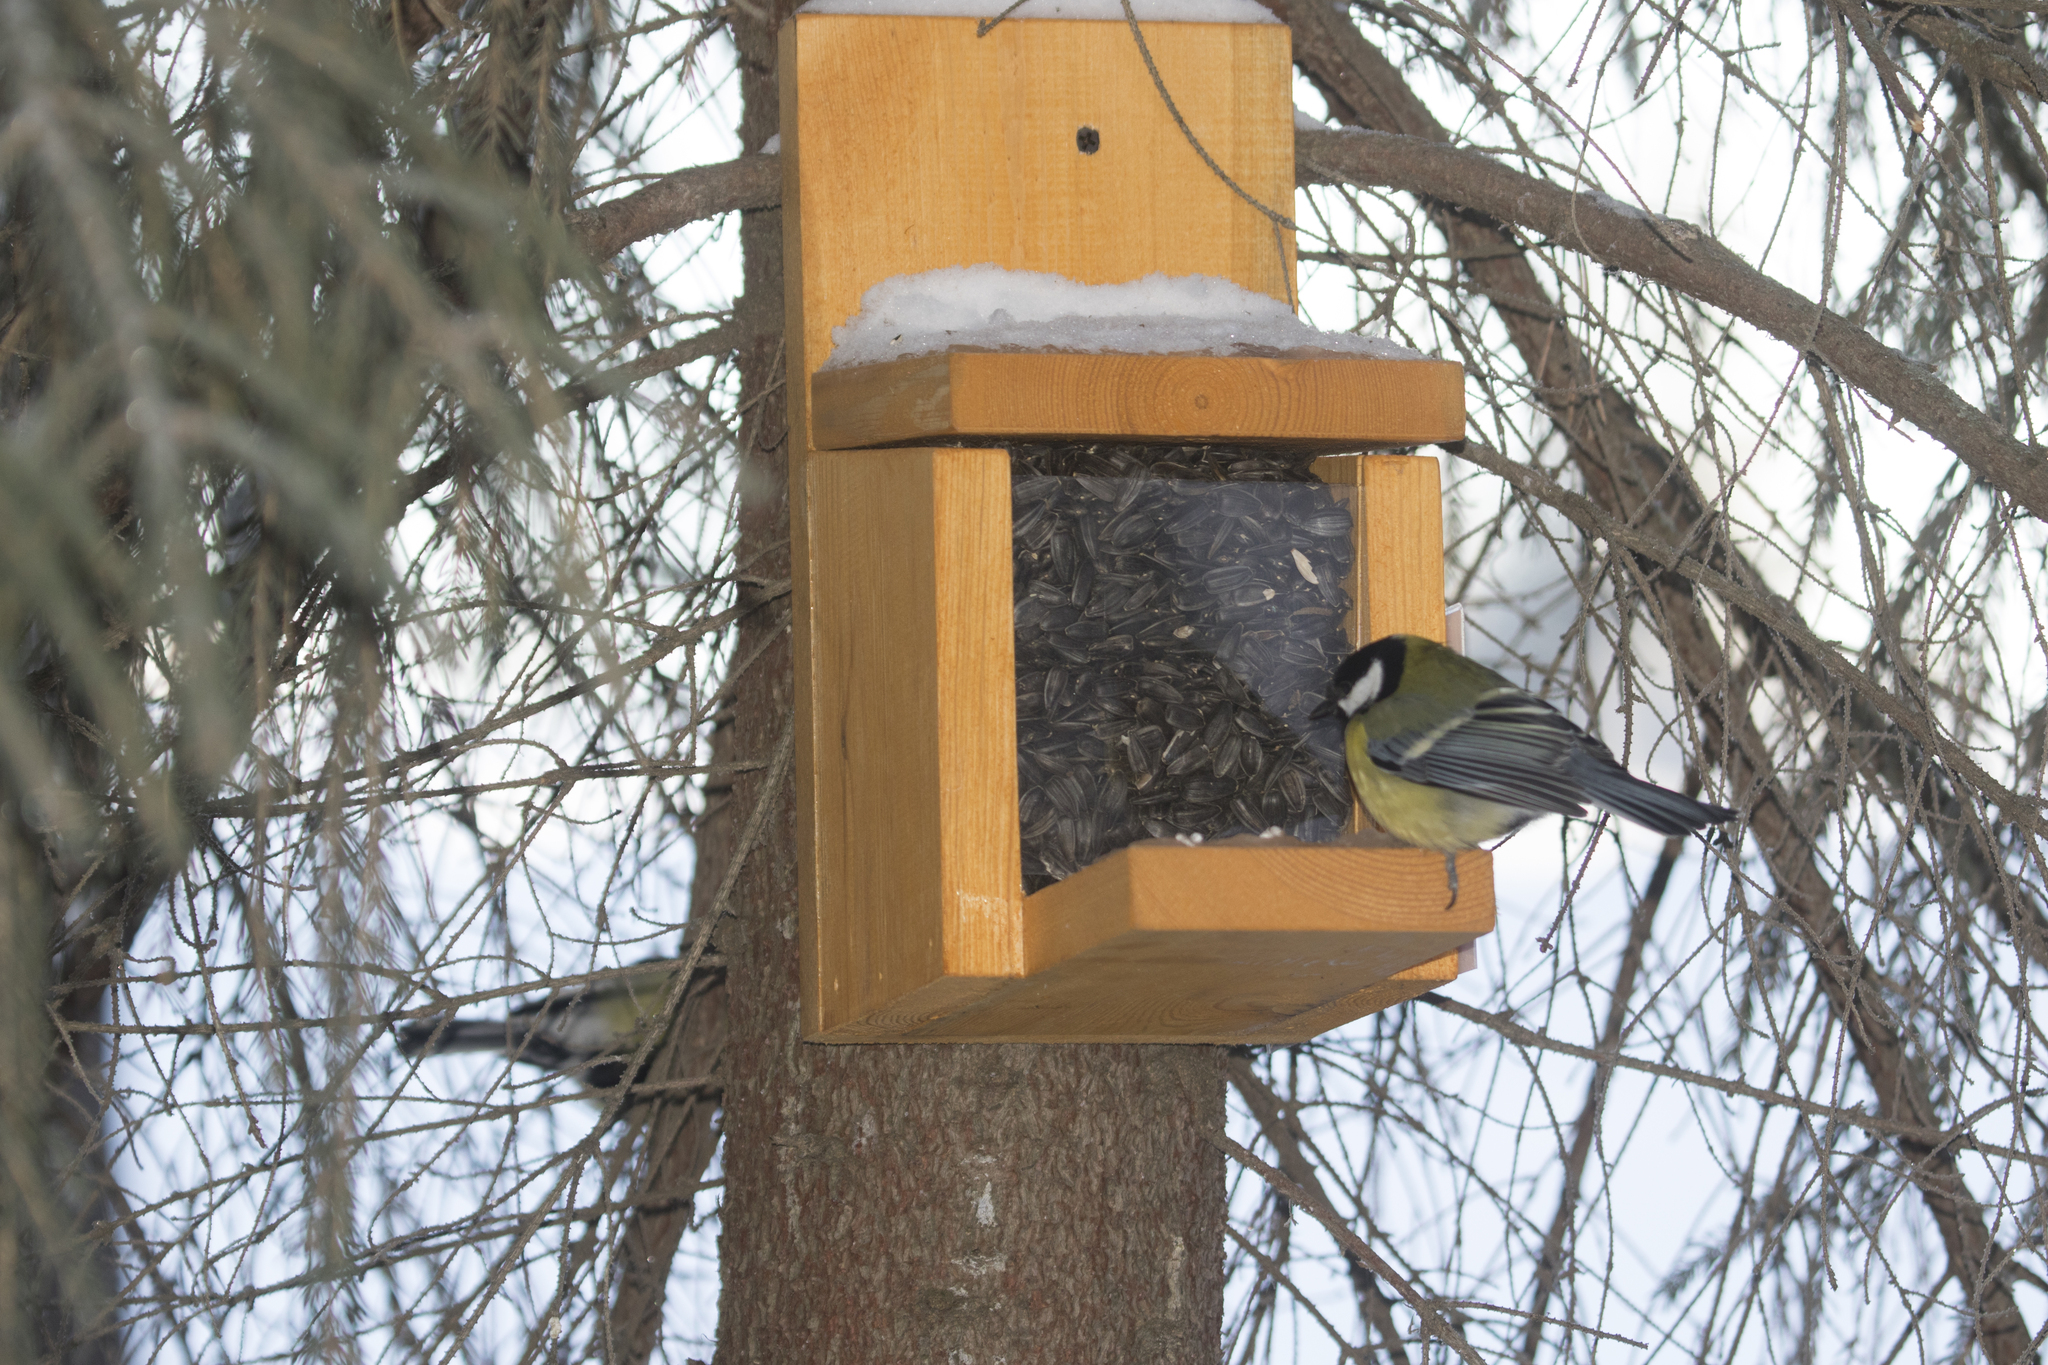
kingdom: Animalia
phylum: Chordata
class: Aves
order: Passeriformes
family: Paridae
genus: Parus
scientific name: Parus major
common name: Great tit
